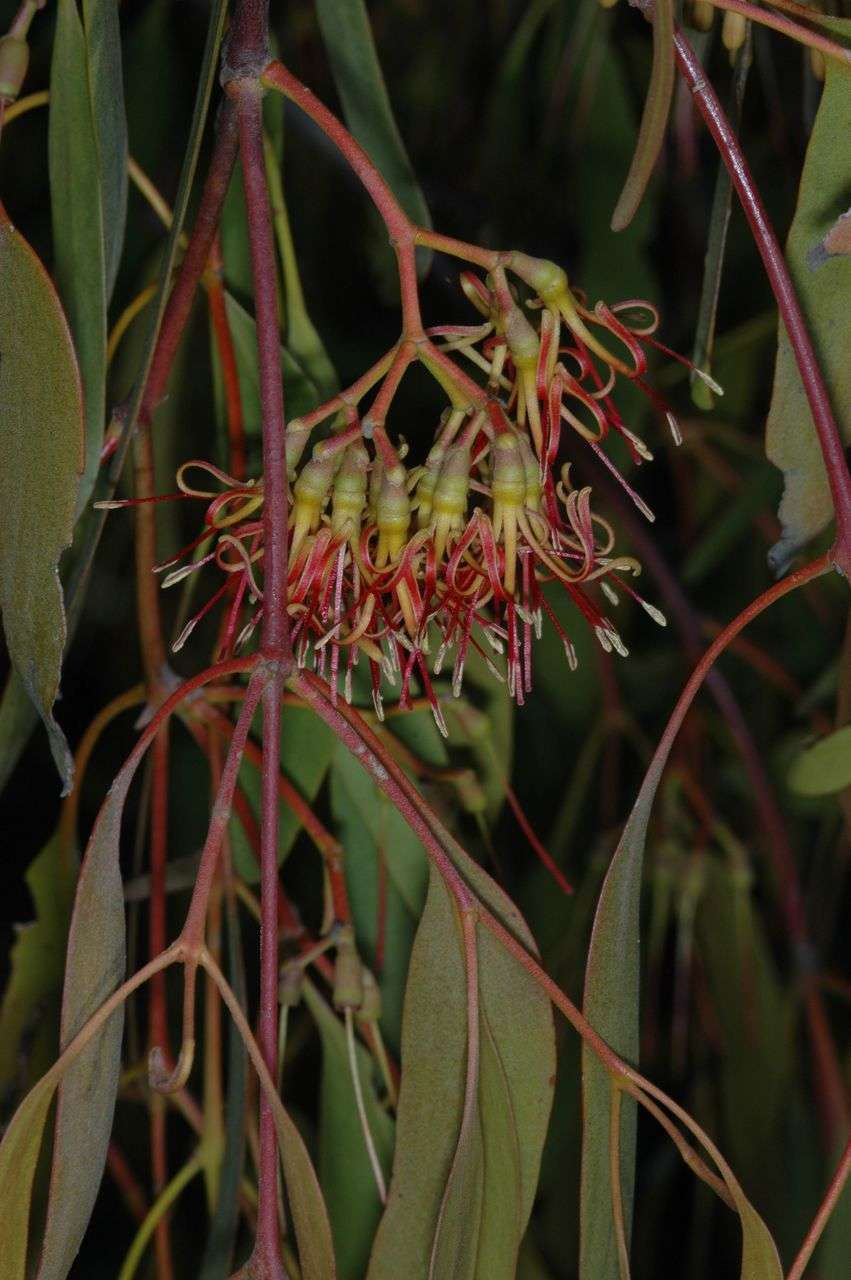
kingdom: Plantae
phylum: Tracheophyta
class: Magnoliopsida
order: Santalales
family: Loranthaceae
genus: Amyema
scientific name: Amyema miquelii
